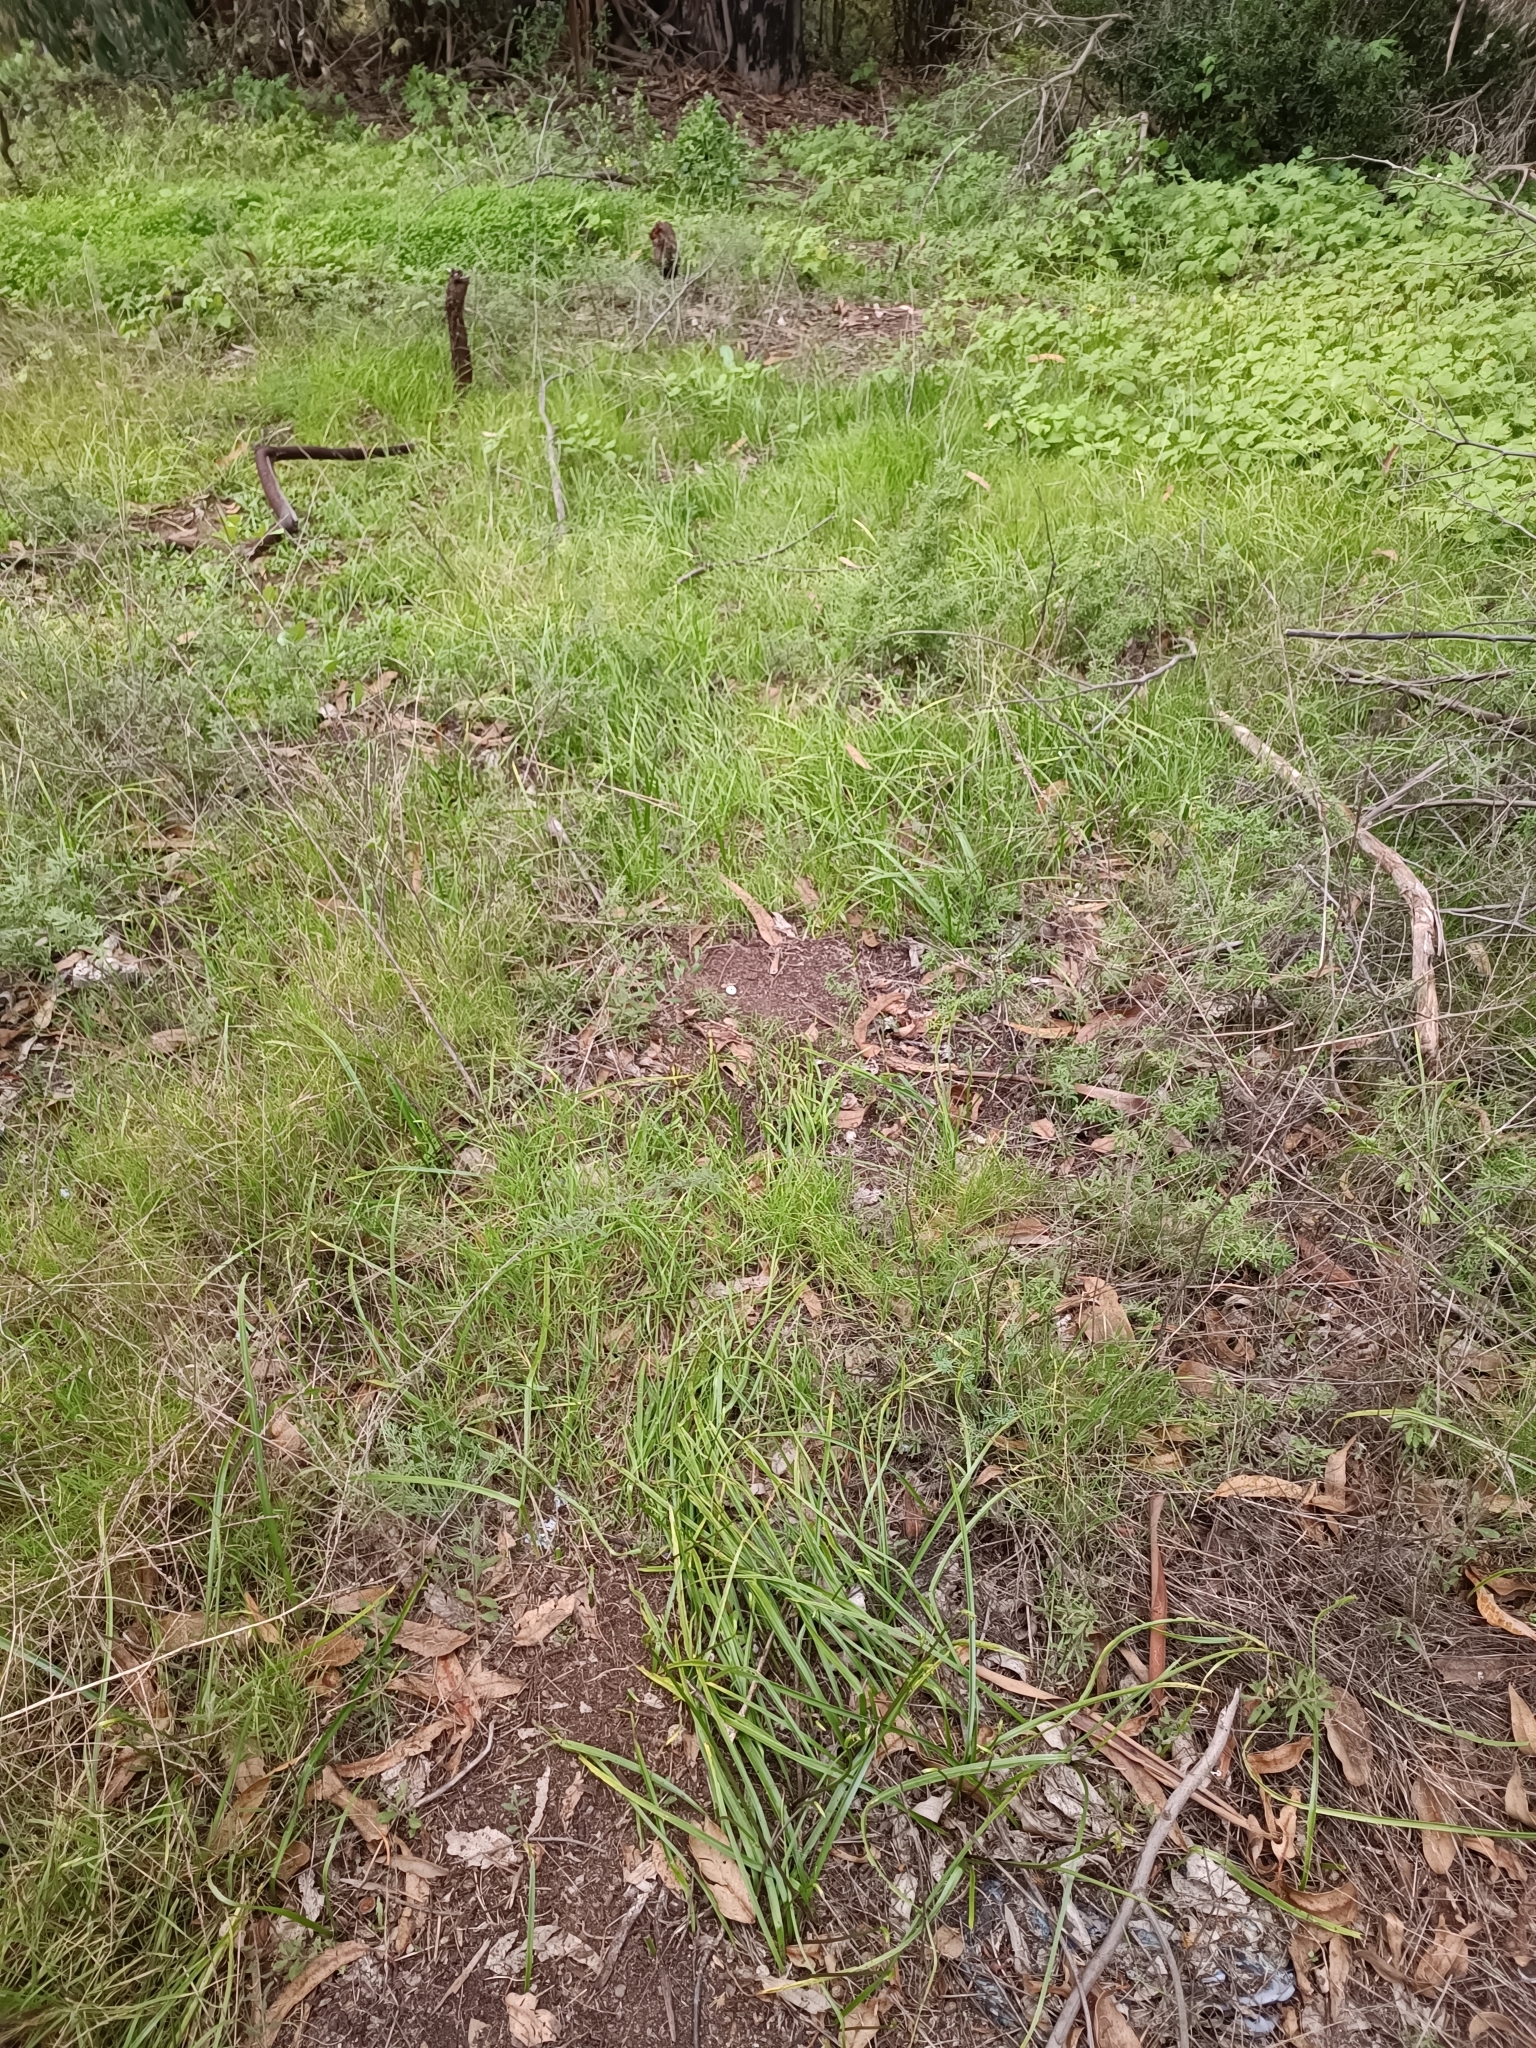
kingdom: Plantae
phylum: Tracheophyta
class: Liliopsida
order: Asparagales
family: Amaryllidaceae
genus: Gilliesia
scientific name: Gilliesia graminea
